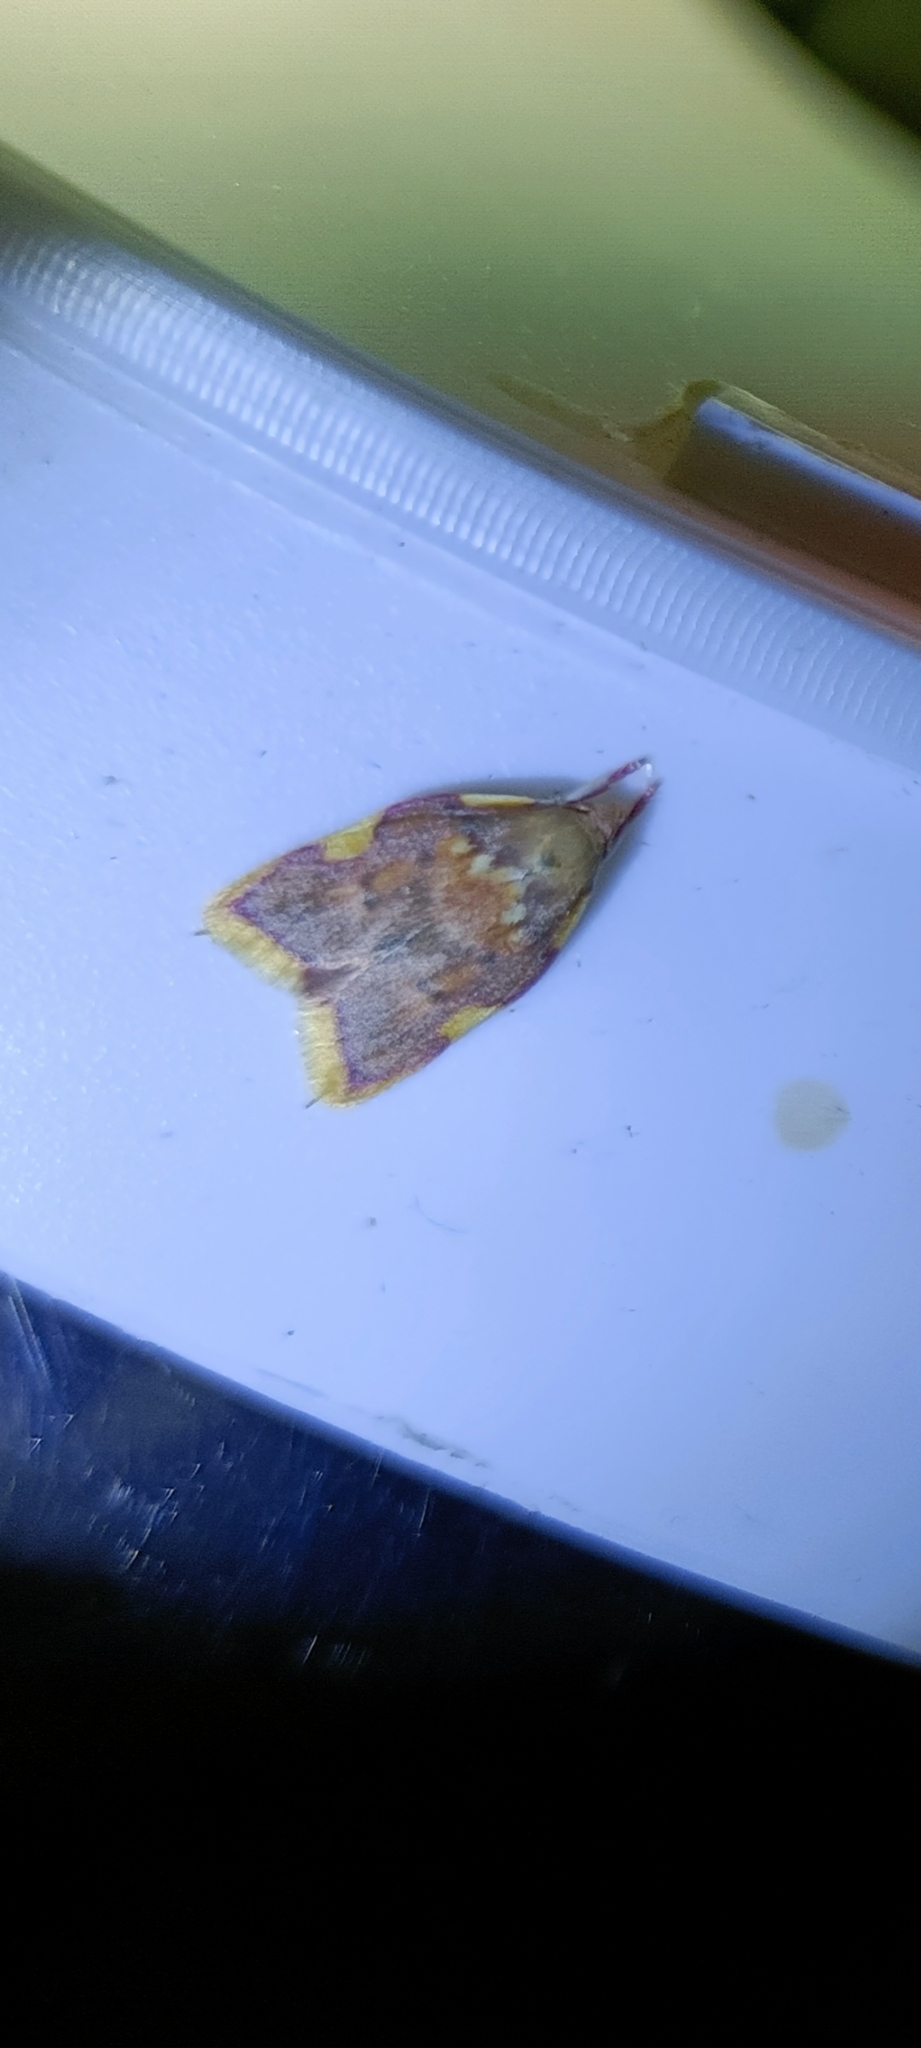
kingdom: Animalia
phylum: Arthropoda
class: Insecta
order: Lepidoptera
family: Peleopodidae
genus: Carcina
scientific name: Carcina quercana
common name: Moth
